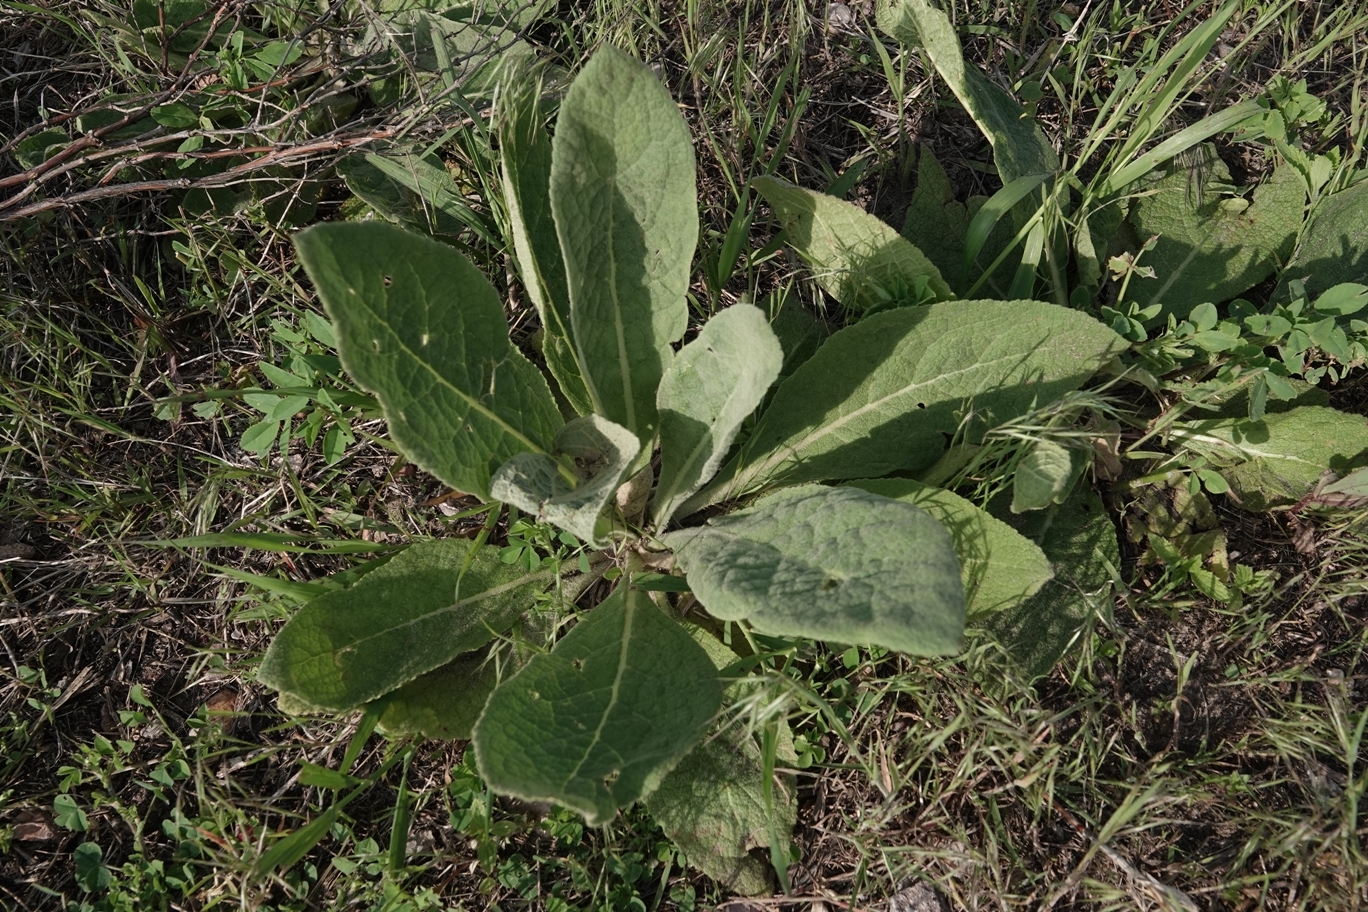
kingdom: Plantae
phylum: Tracheophyta
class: Magnoliopsida
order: Lamiales
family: Scrophulariaceae
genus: Verbascum
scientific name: Verbascum thapsus
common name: Common mullein
